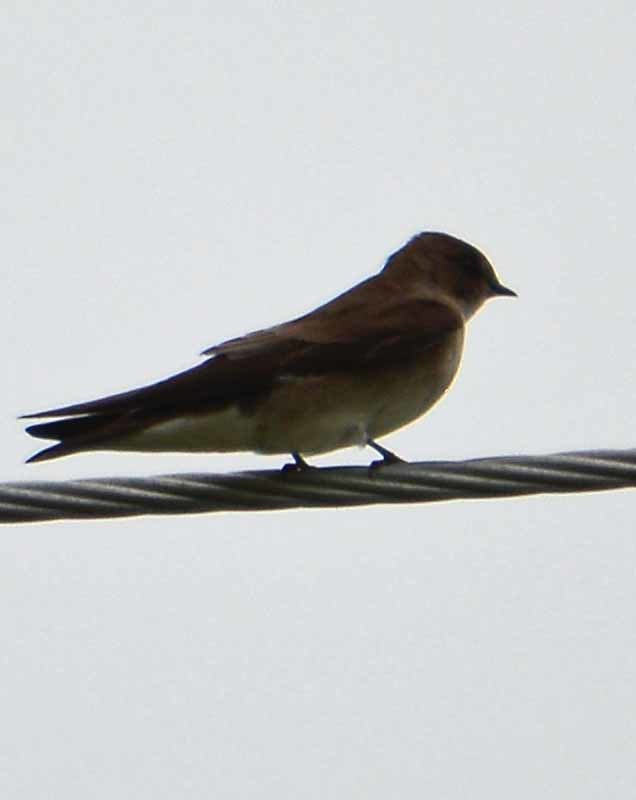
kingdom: Animalia
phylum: Chordata
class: Aves
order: Passeriformes
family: Hirundinidae
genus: Stelgidopteryx
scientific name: Stelgidopteryx serripennis
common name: Northern rough-winged swallow
